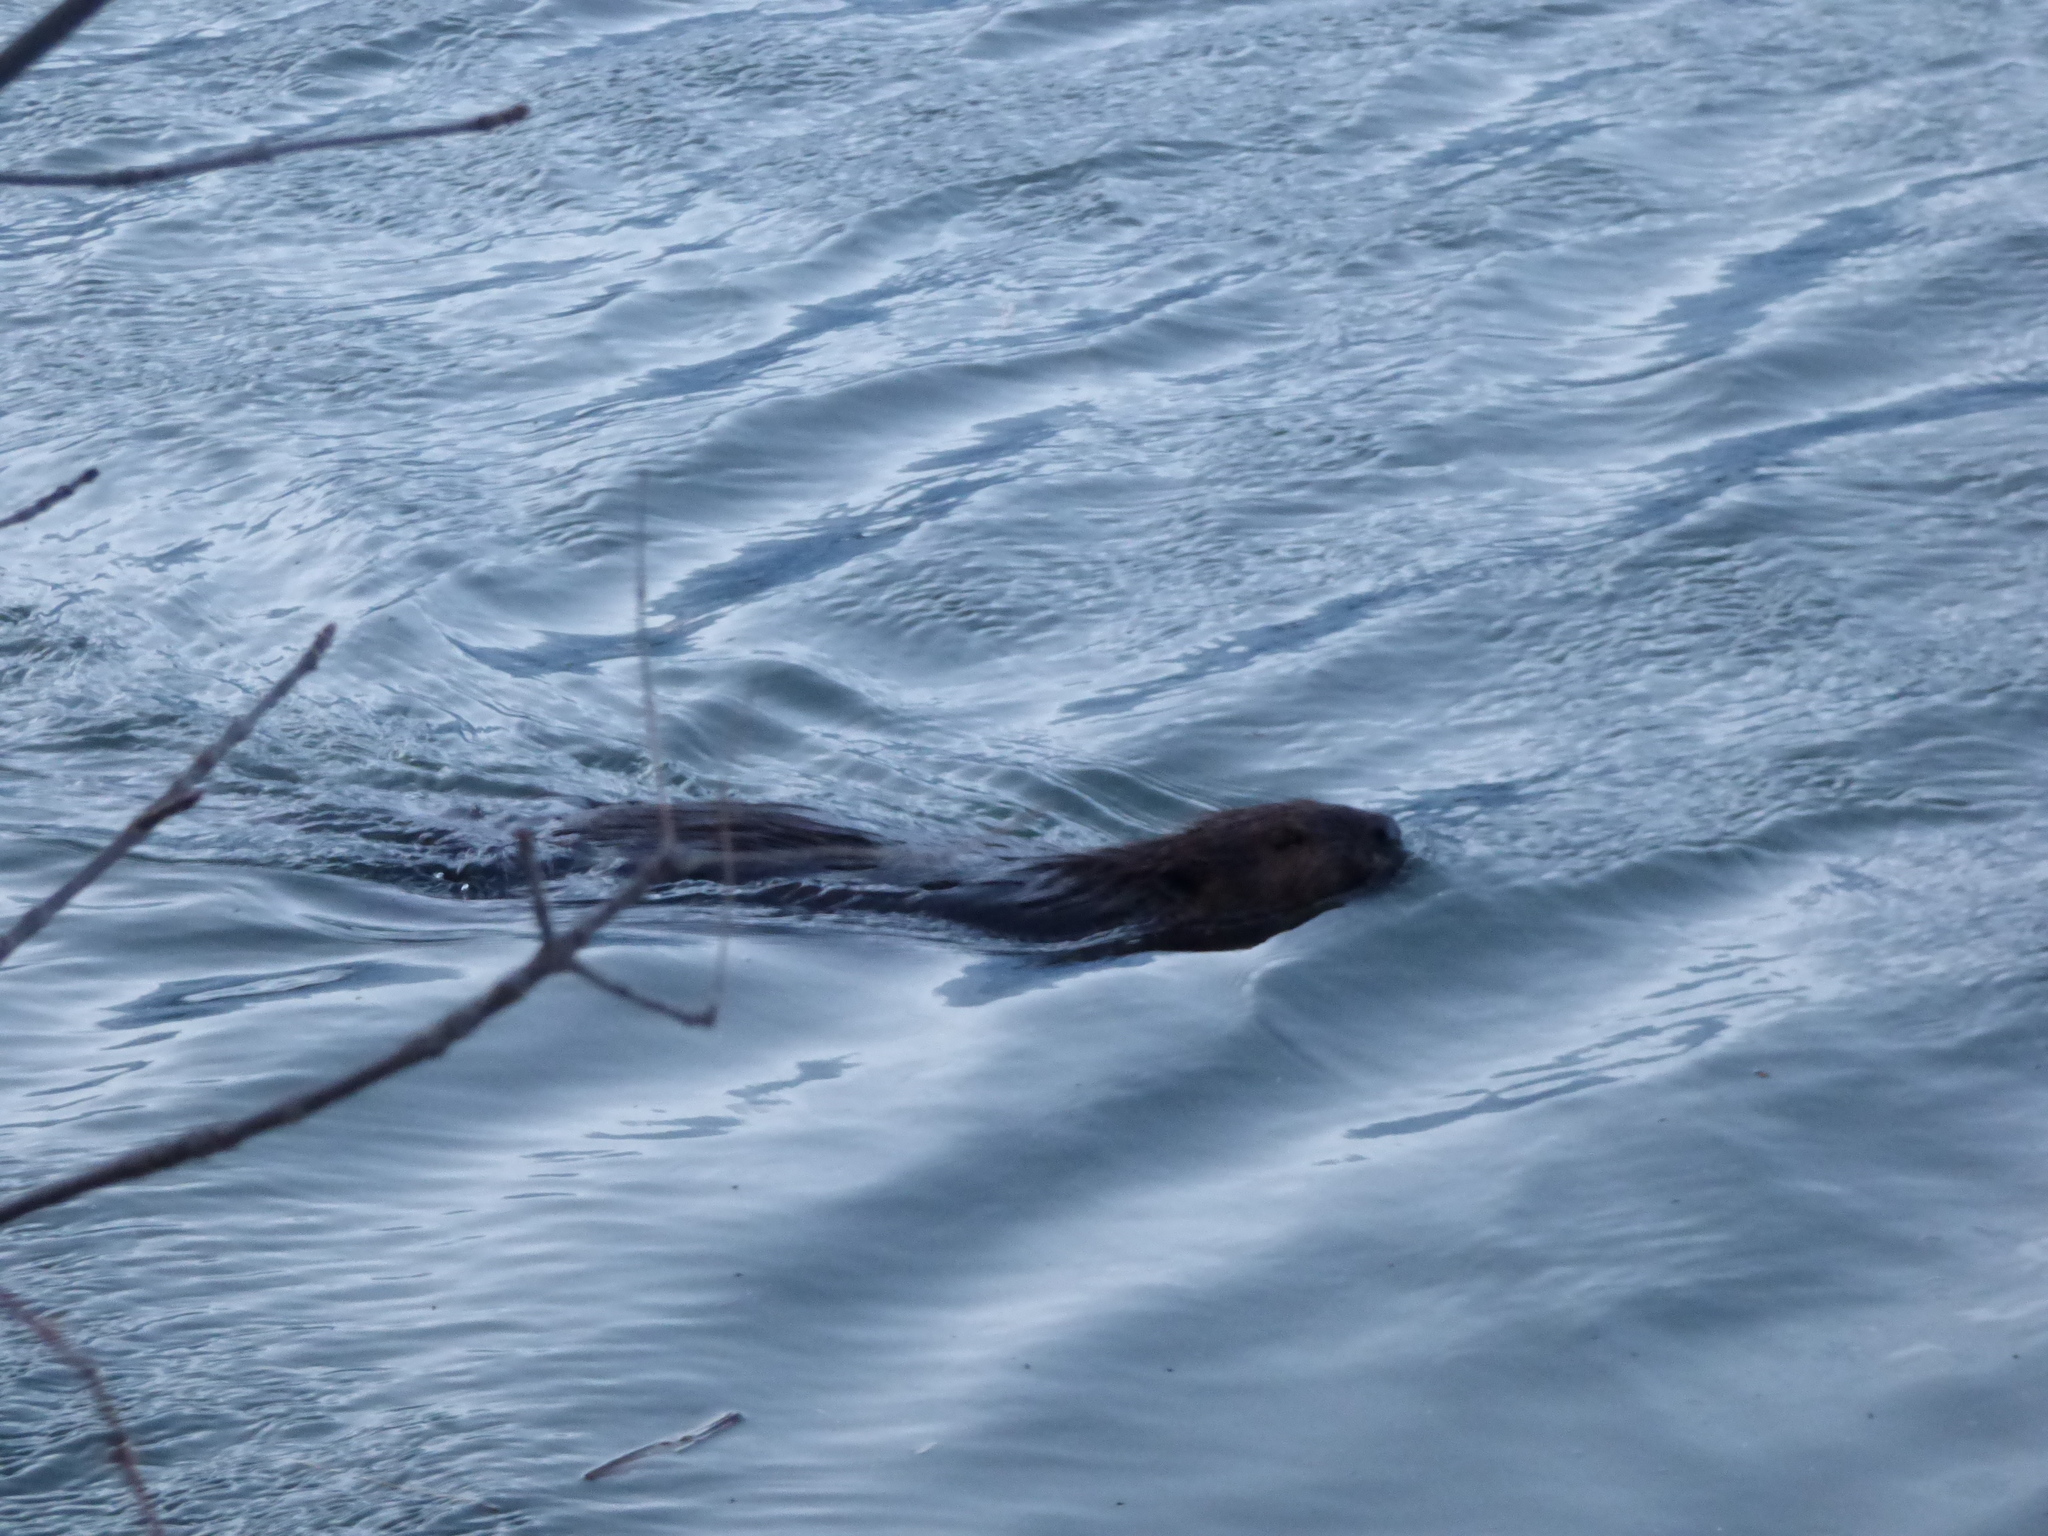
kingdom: Animalia
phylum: Chordata
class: Mammalia
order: Rodentia
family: Castoridae
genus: Castor
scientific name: Castor canadensis
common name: American beaver
